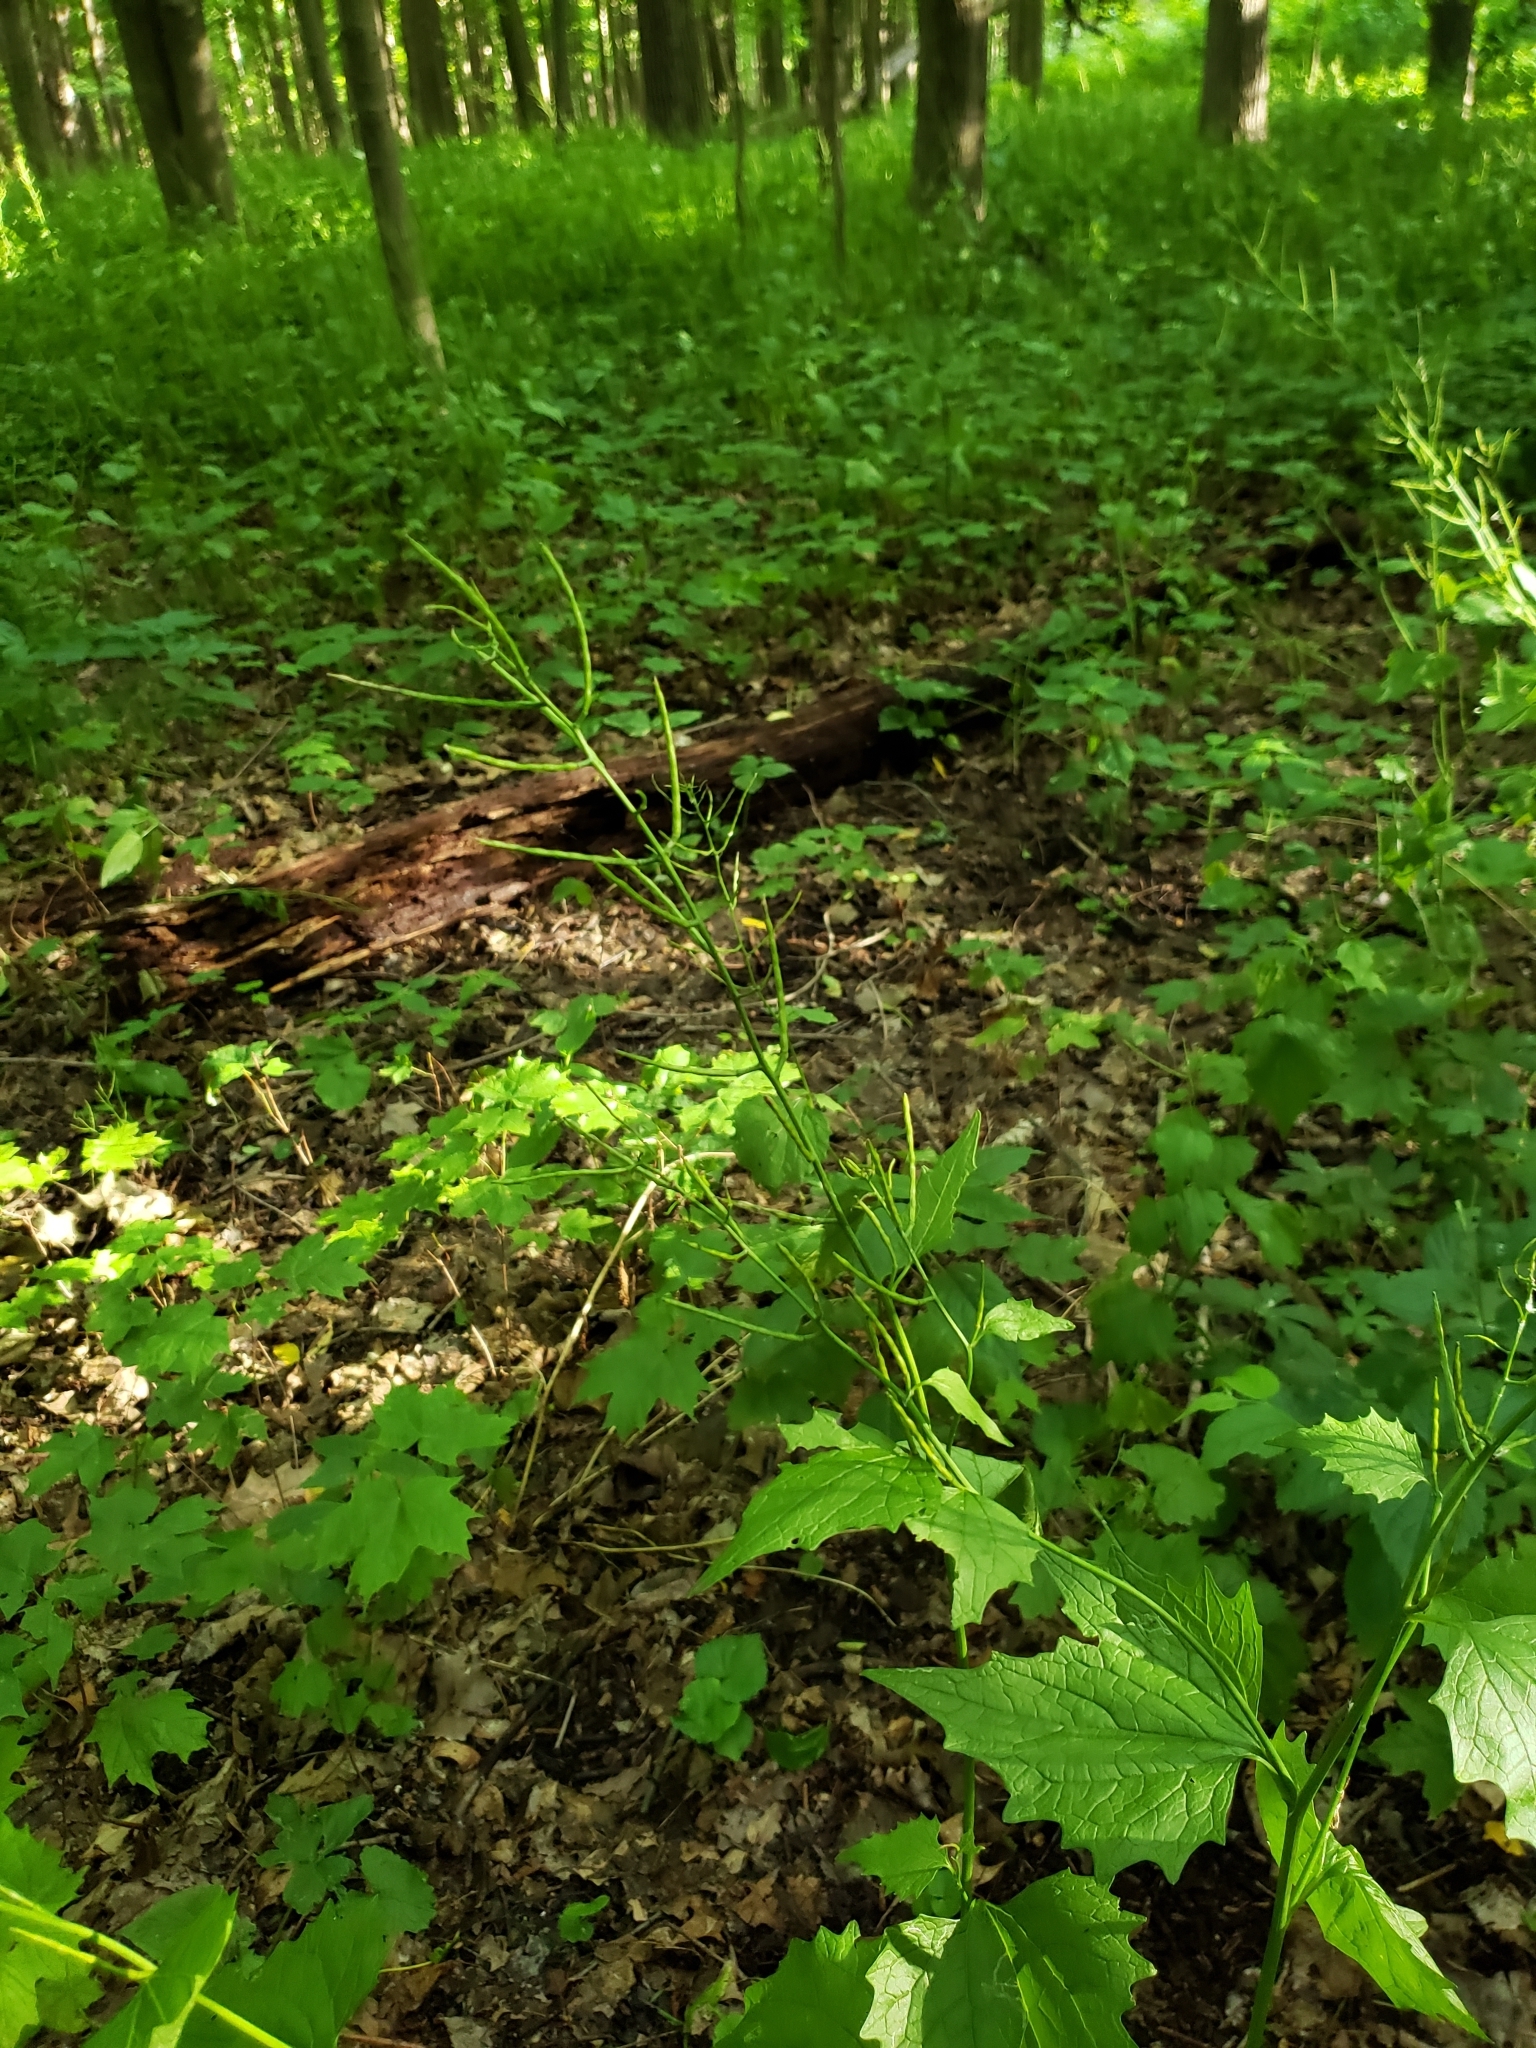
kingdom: Plantae
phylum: Tracheophyta
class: Magnoliopsida
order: Brassicales
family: Brassicaceae
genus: Alliaria
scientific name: Alliaria petiolata
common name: Garlic mustard
